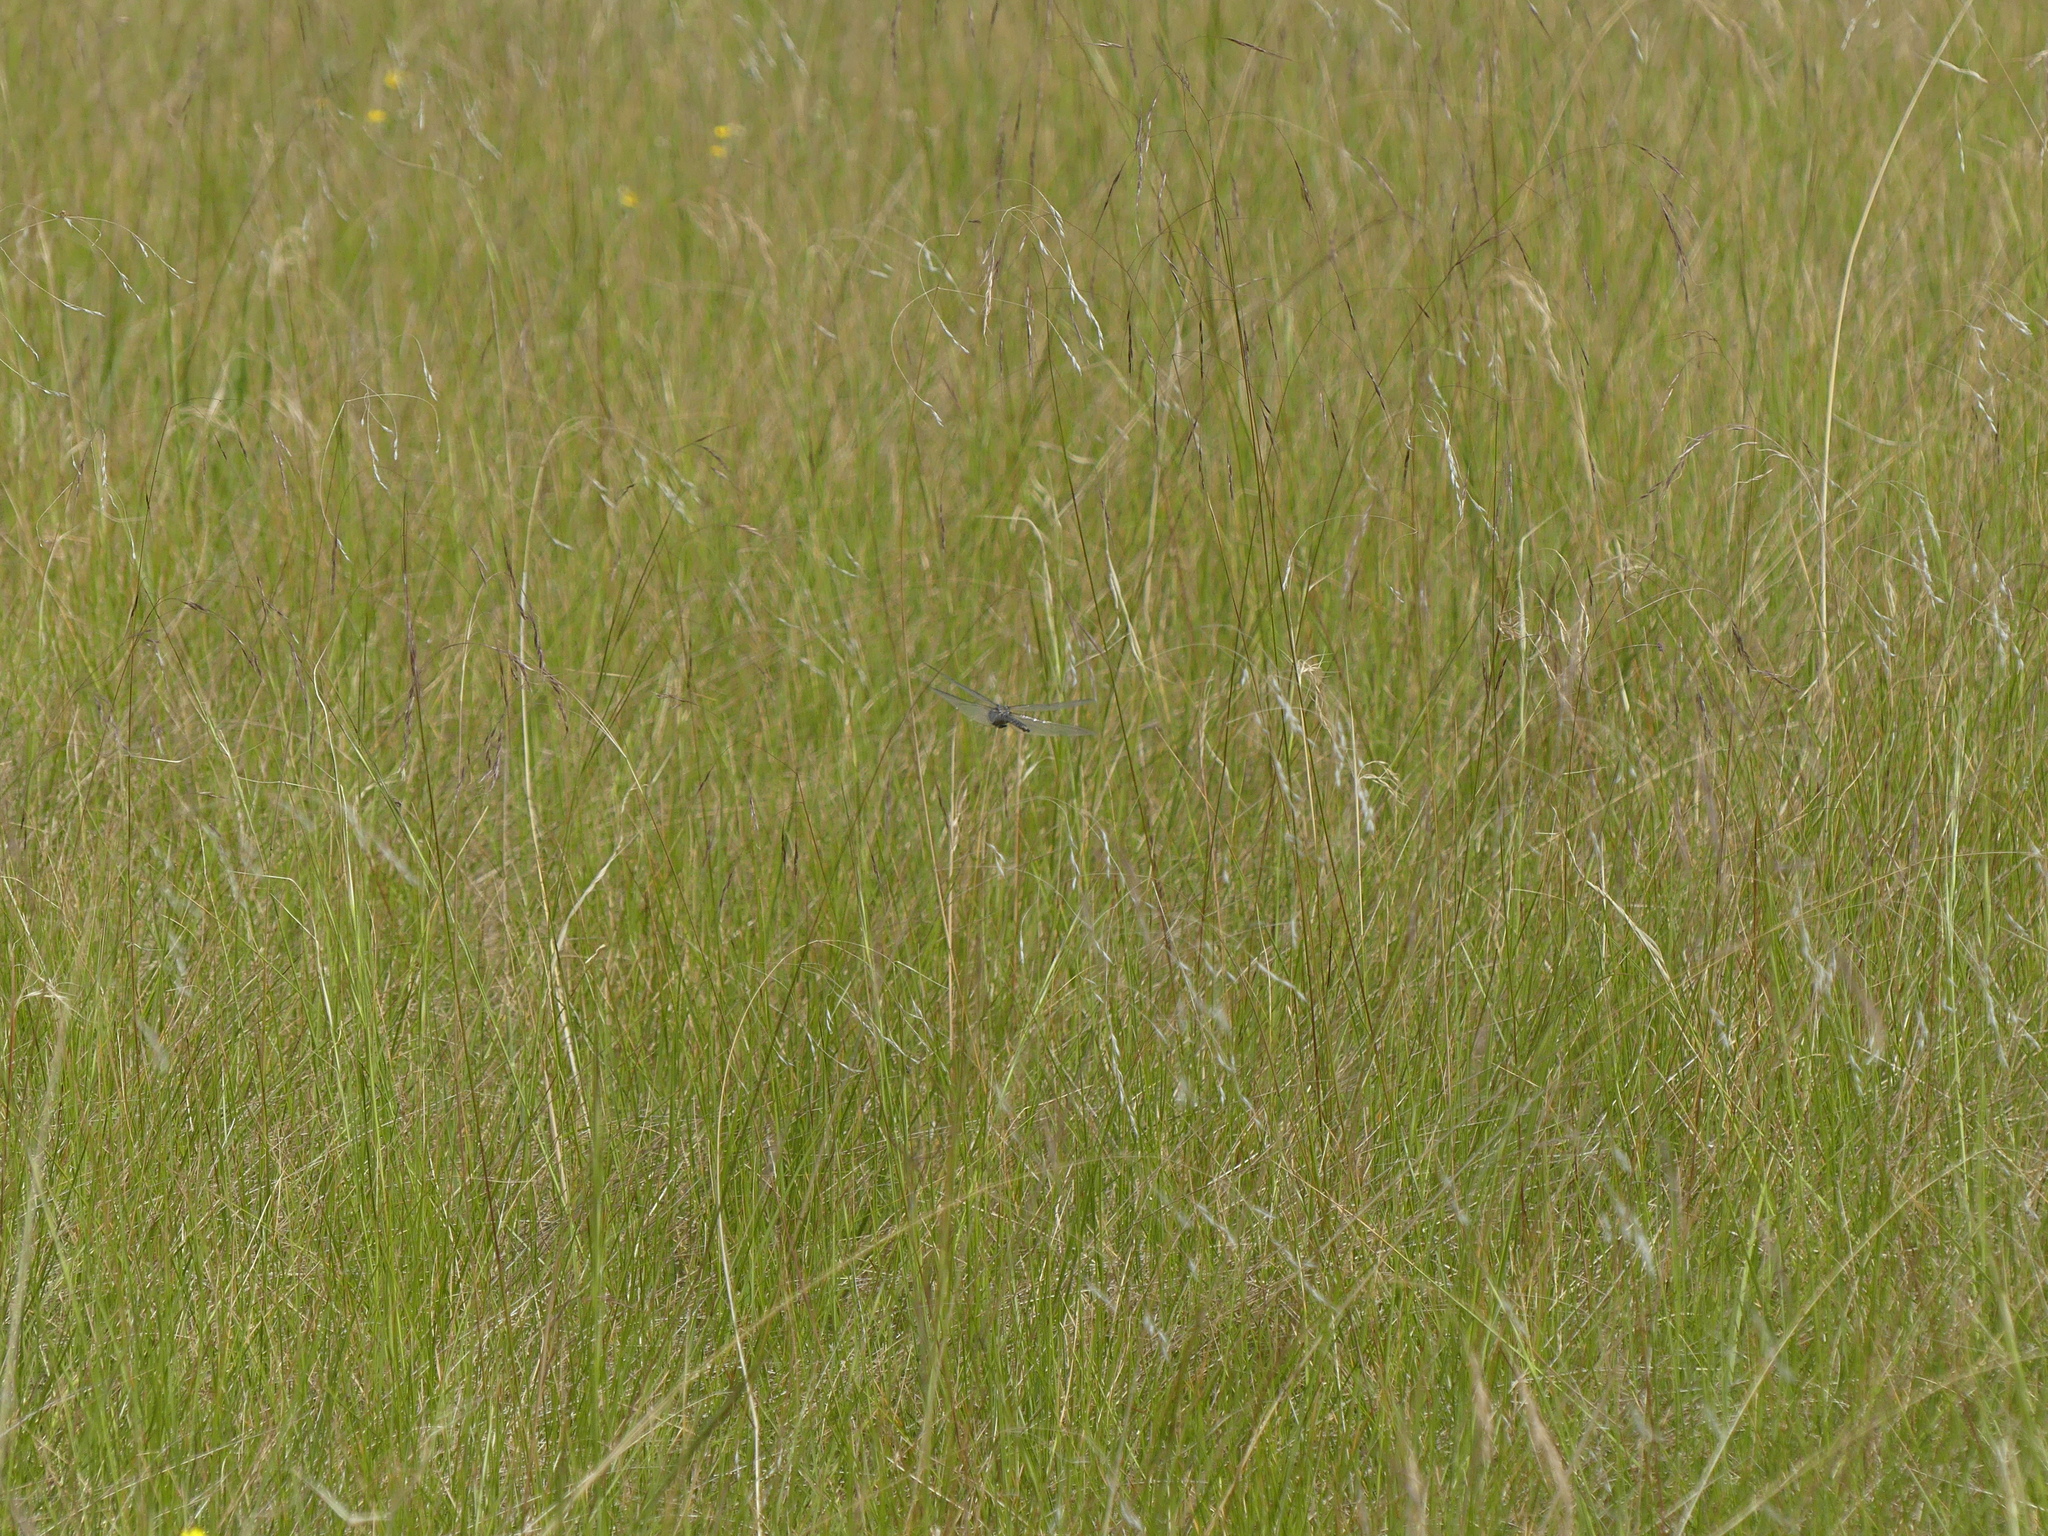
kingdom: Animalia
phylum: Arthropoda
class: Insecta
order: Odonata
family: Aeshnidae
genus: Aeshna
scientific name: Aeshna interrupta
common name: Variable darner
